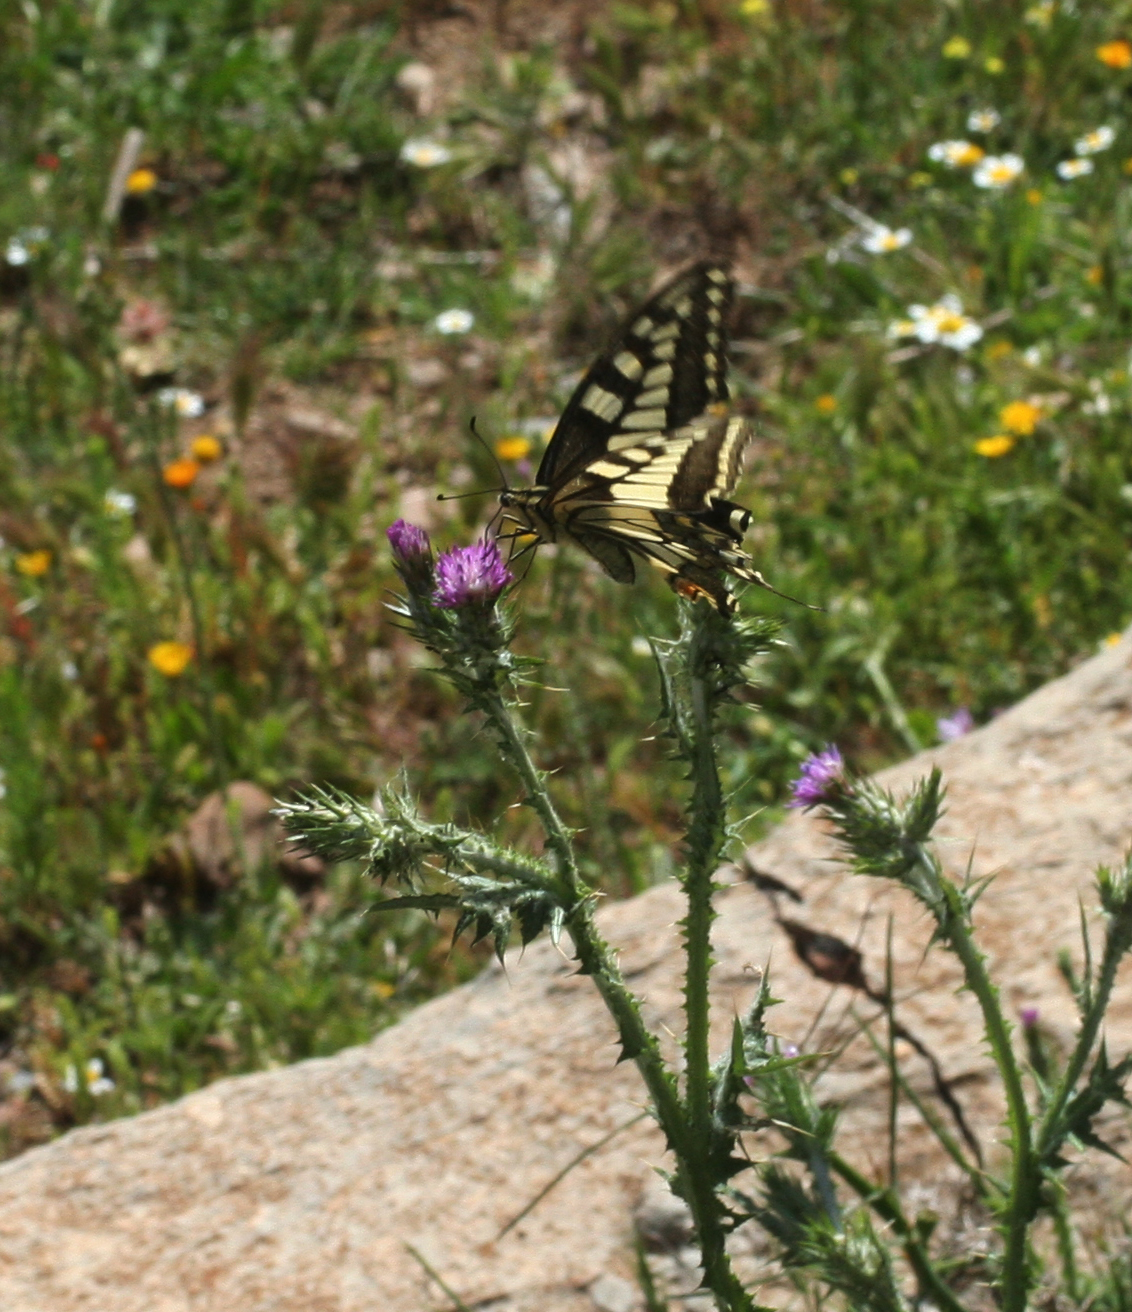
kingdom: Animalia
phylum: Arthropoda
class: Insecta
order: Lepidoptera
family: Papilionidae
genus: Papilio
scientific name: Papilio machaon
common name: Swallowtail
